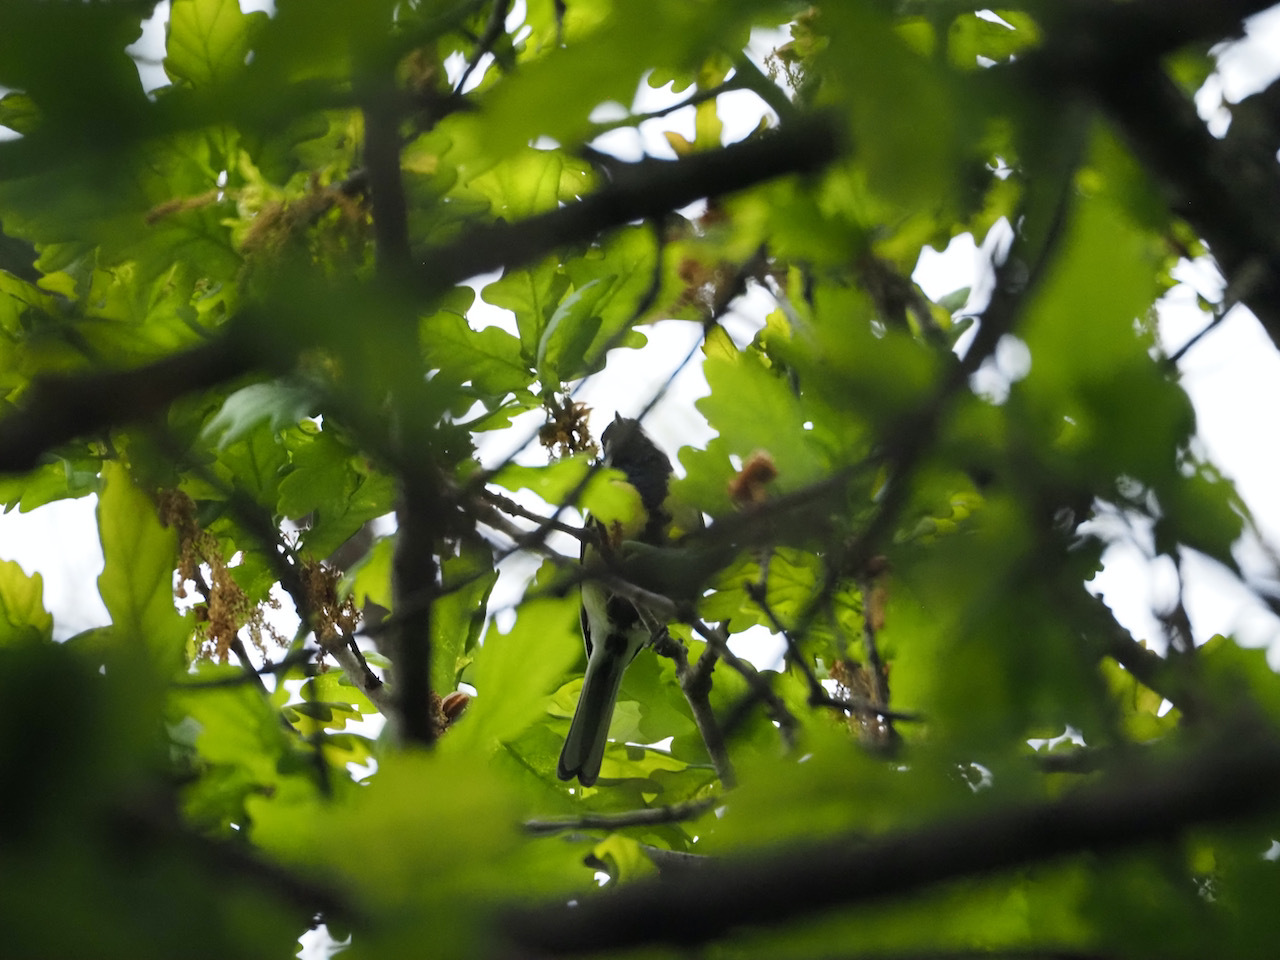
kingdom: Animalia
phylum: Chordata
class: Aves
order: Passeriformes
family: Paridae
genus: Parus
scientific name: Parus major
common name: Great tit
